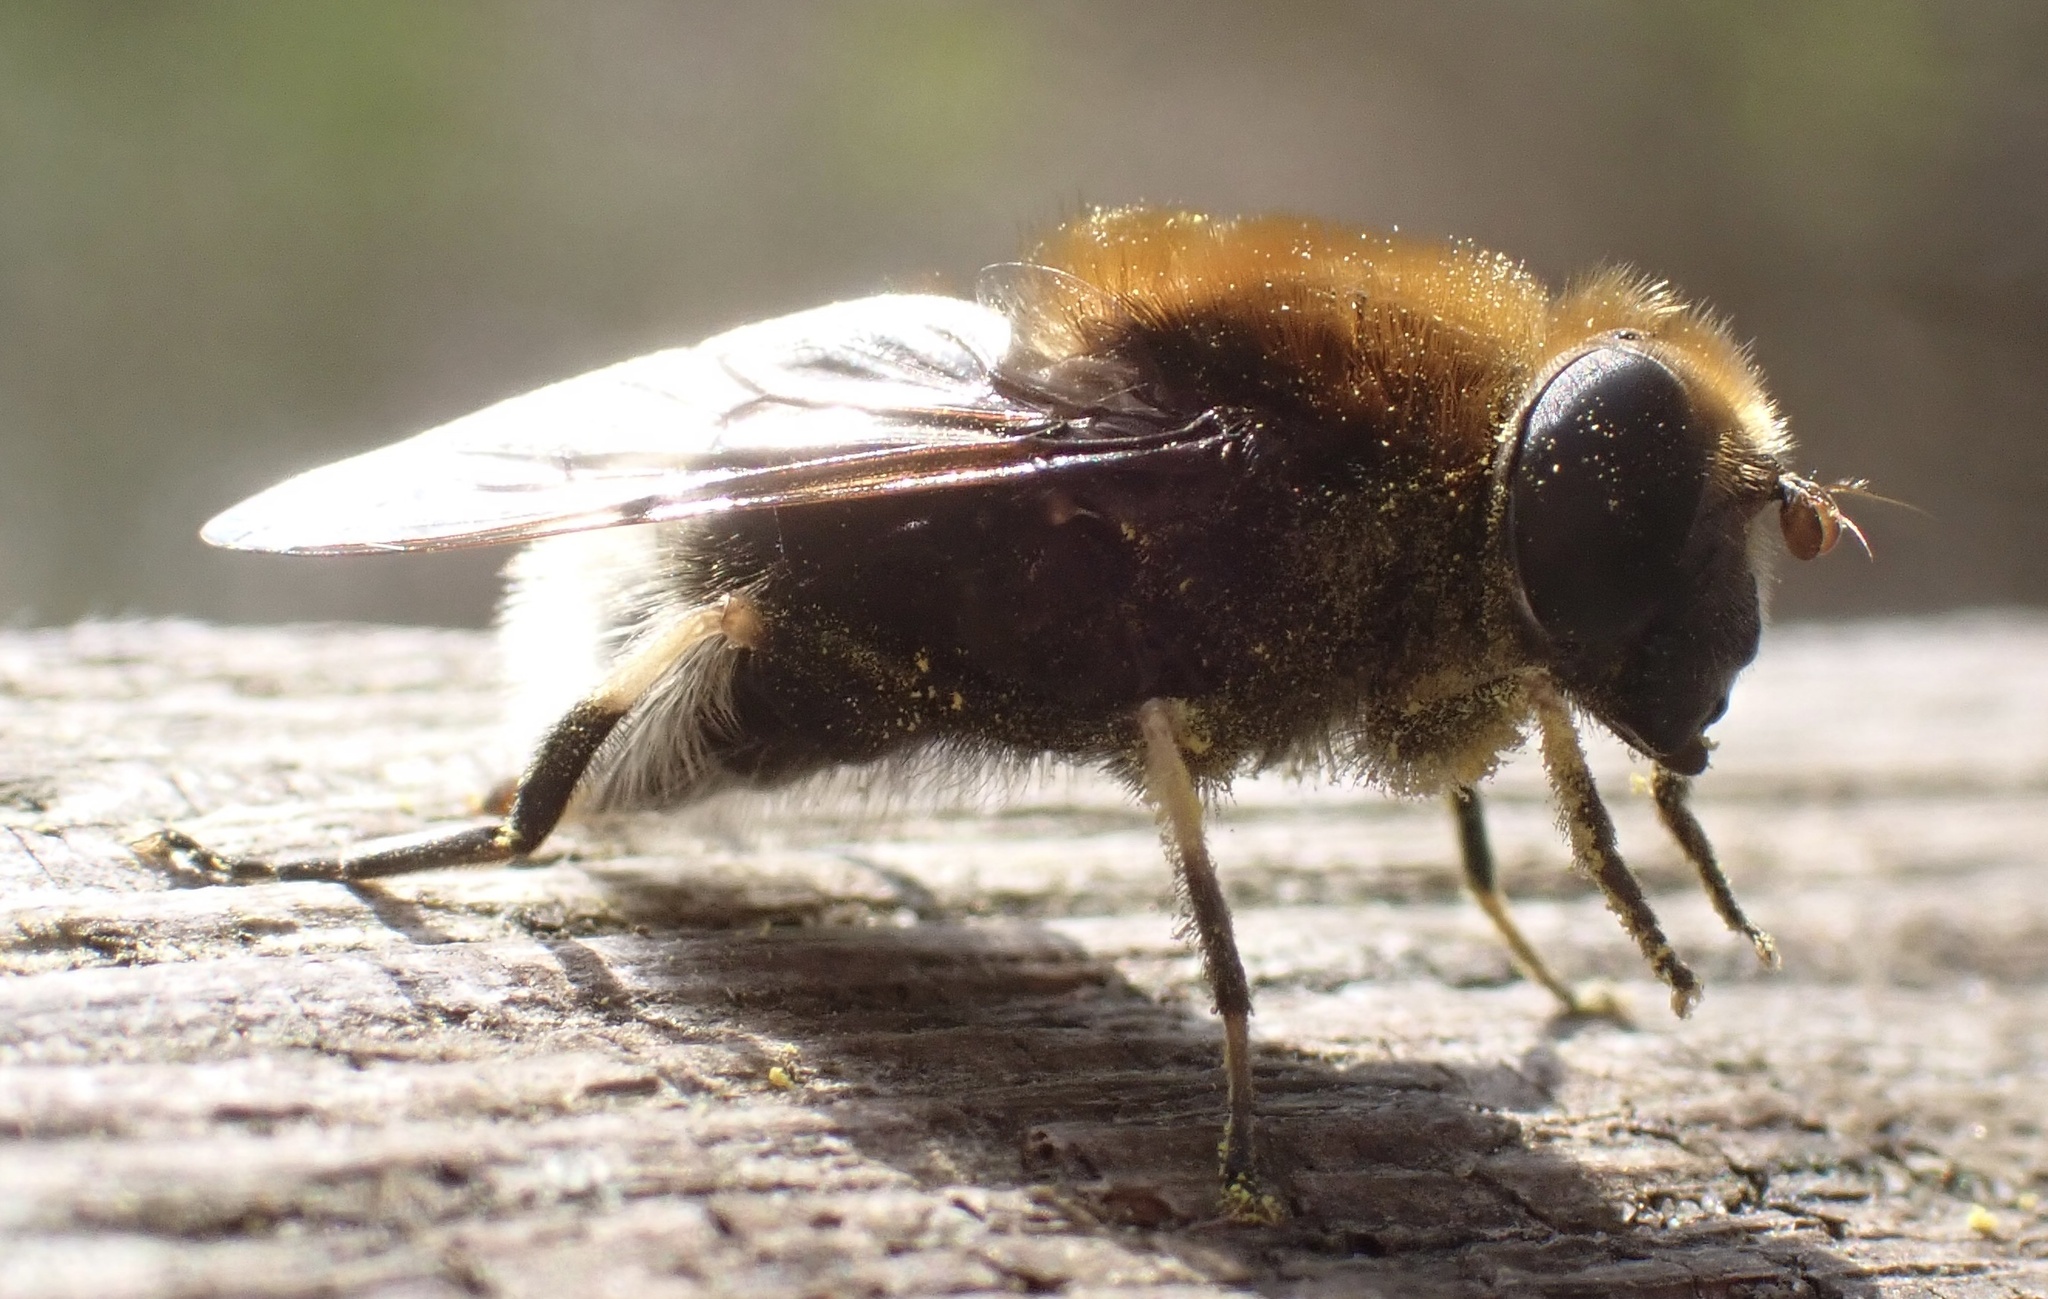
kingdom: Animalia
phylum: Arthropoda
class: Insecta
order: Diptera
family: Syrphidae
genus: Eristalis
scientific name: Eristalis intricaria
